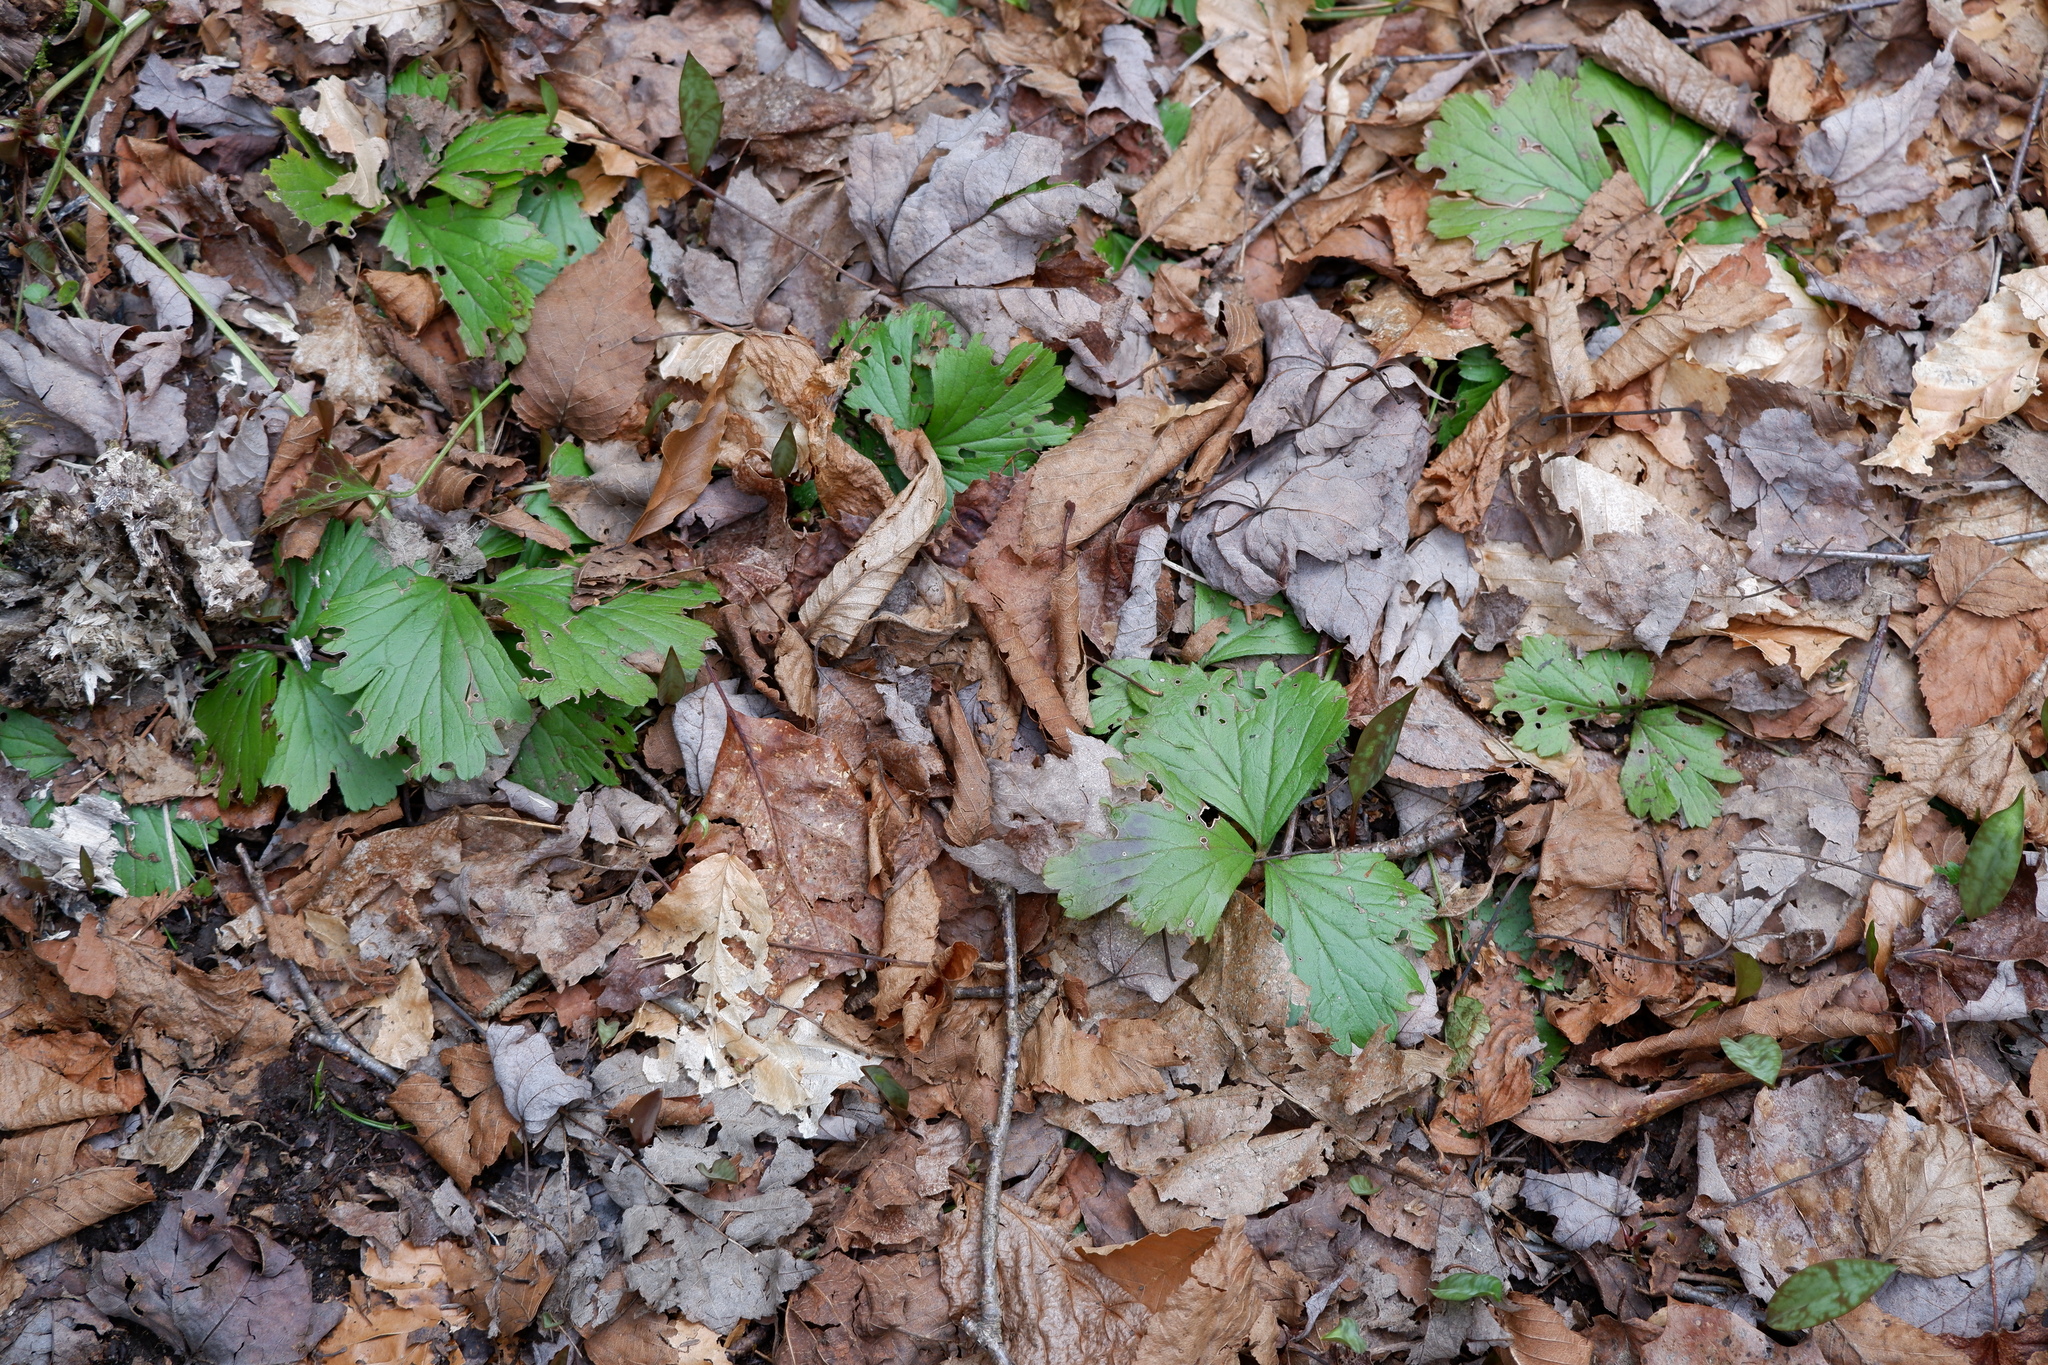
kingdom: Plantae
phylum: Tracheophyta
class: Magnoliopsida
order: Rosales
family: Rosaceae
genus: Geum
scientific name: Geum fragarioides
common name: Appalachian barren strawberry
